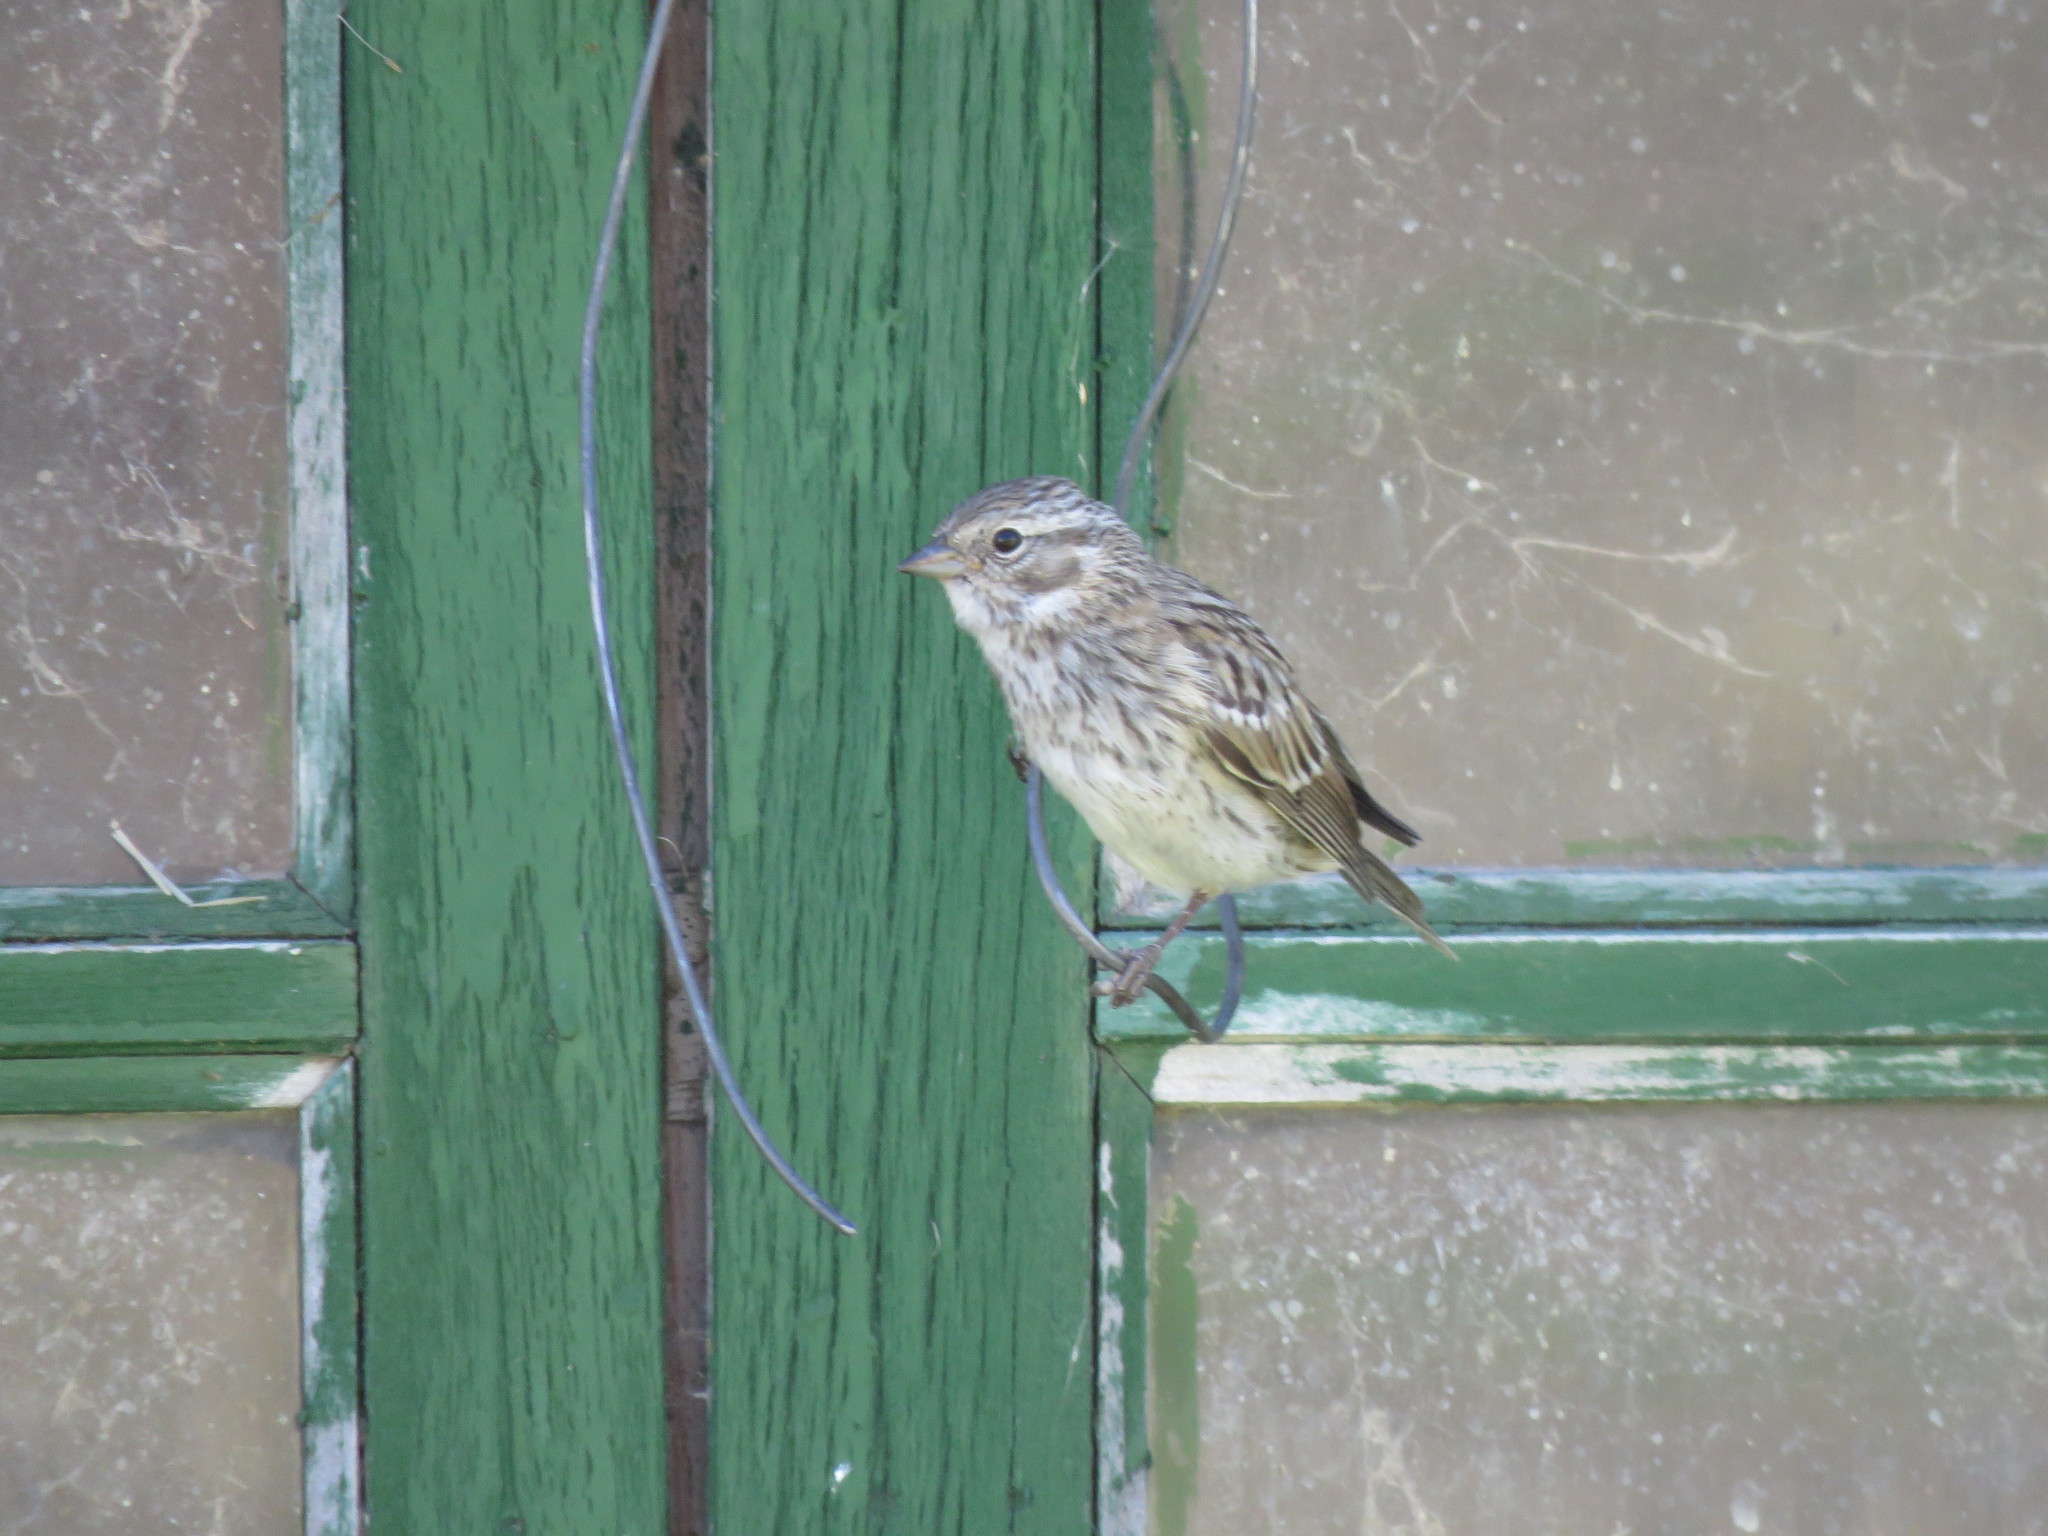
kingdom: Animalia
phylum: Chordata
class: Aves
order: Passeriformes
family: Passerellidae
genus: Zonotrichia
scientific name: Zonotrichia capensis
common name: Rufous-collared sparrow
